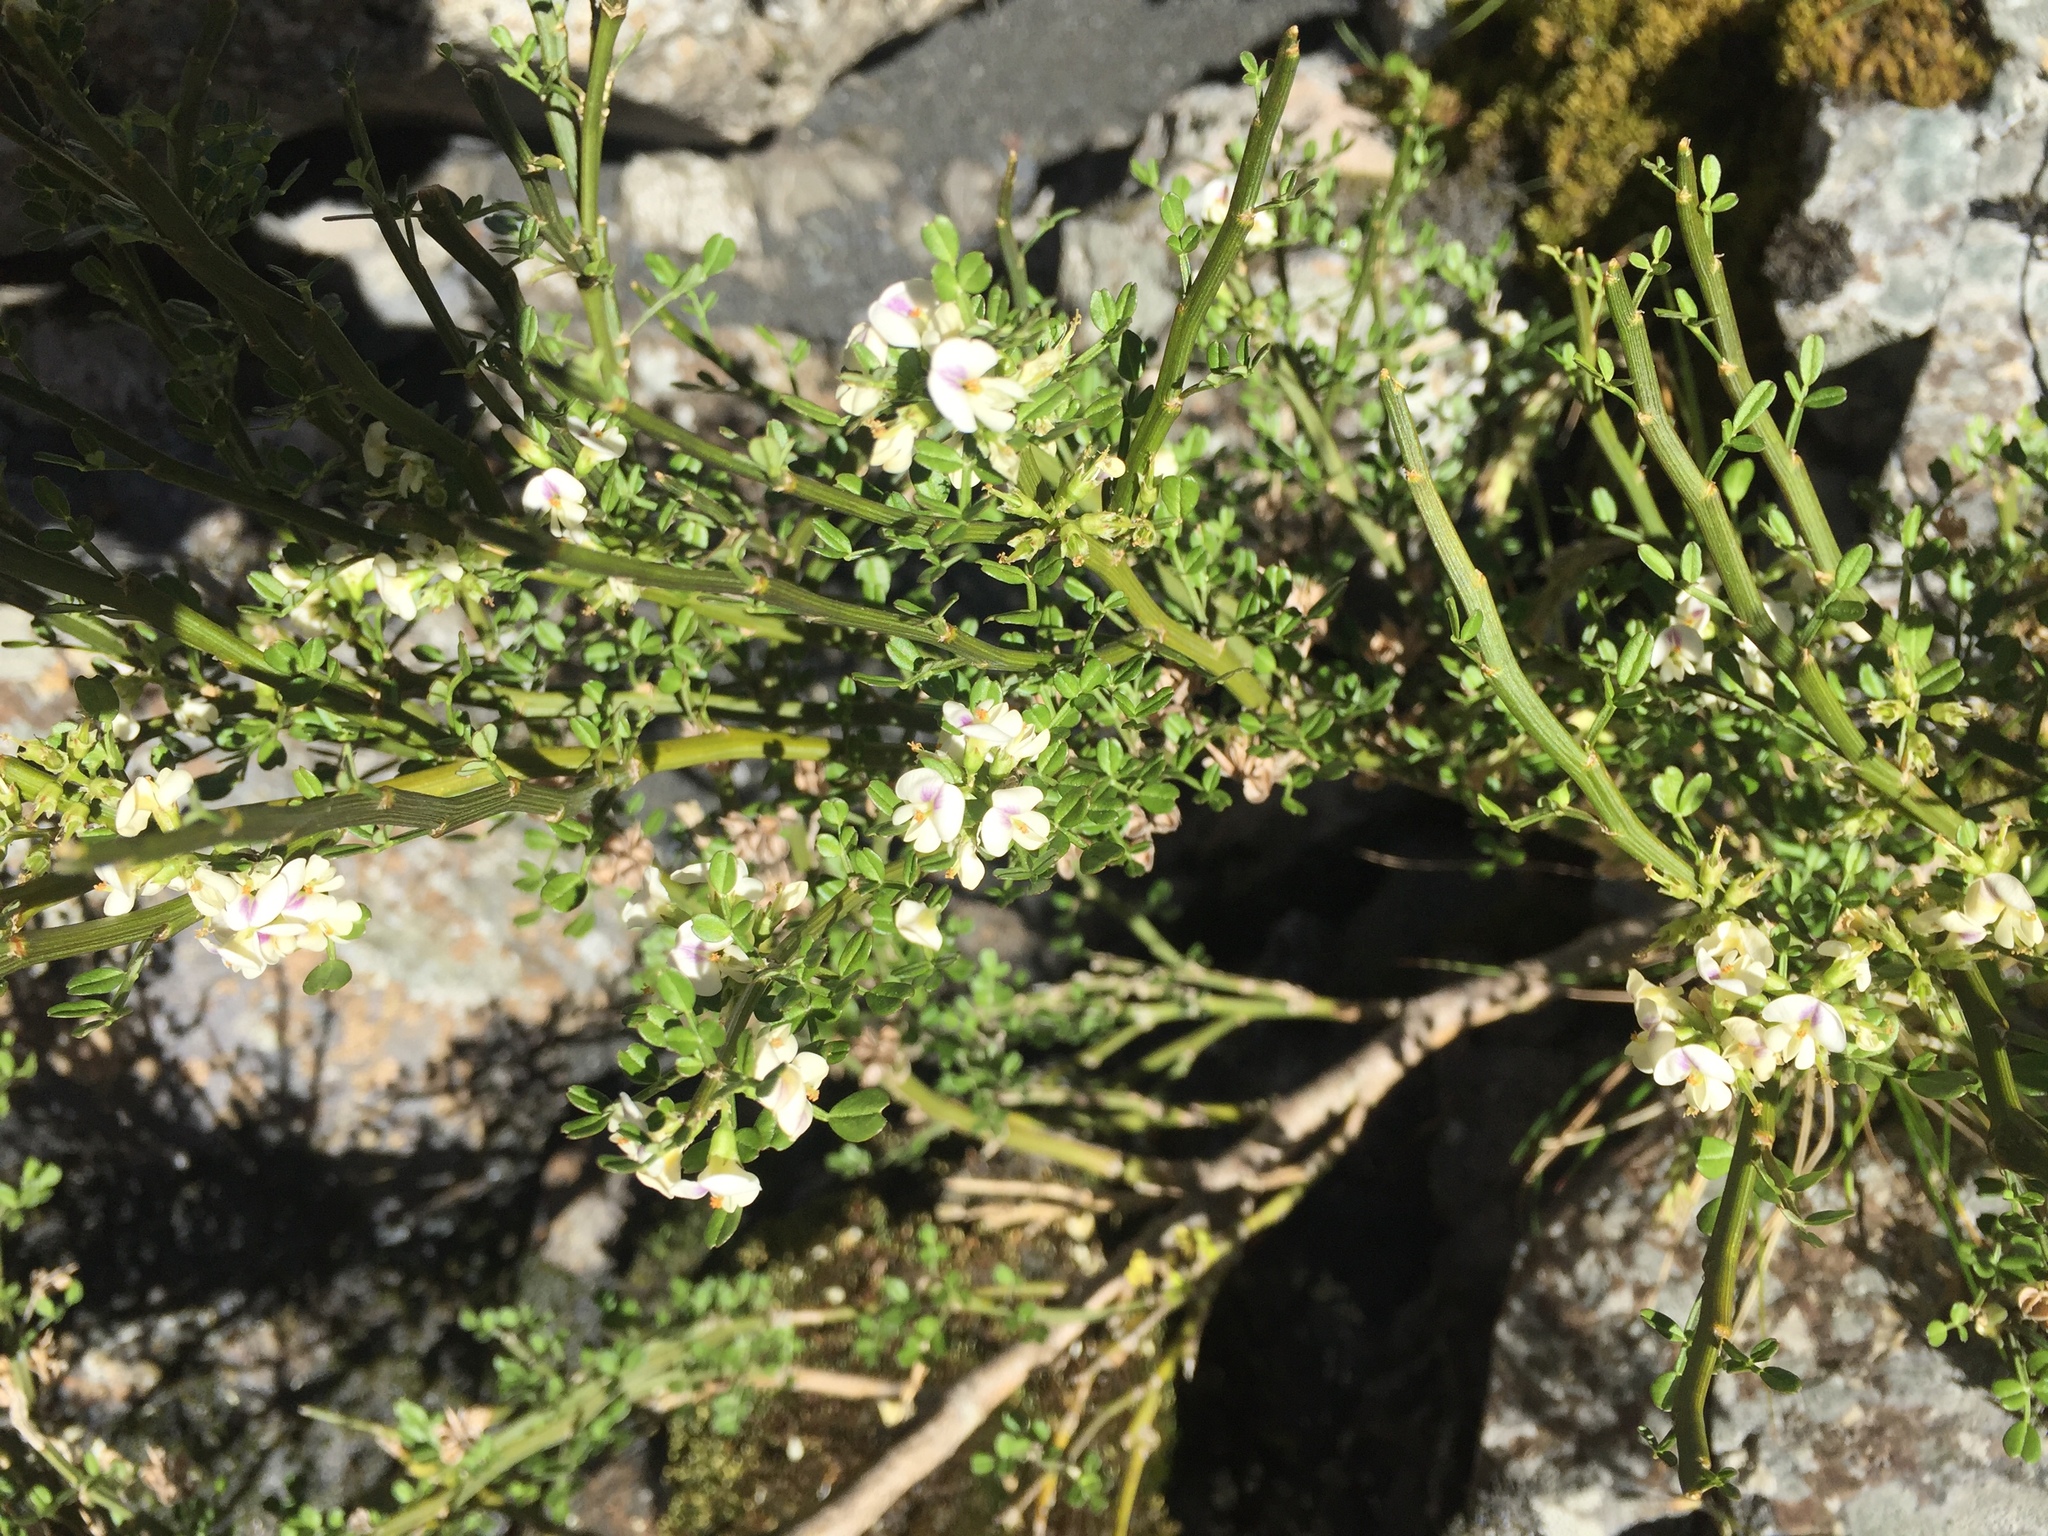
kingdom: Plantae
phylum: Tracheophyta
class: Magnoliopsida
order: Fabales
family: Fabaceae
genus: Carmichaelia
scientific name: Carmichaelia arborea
